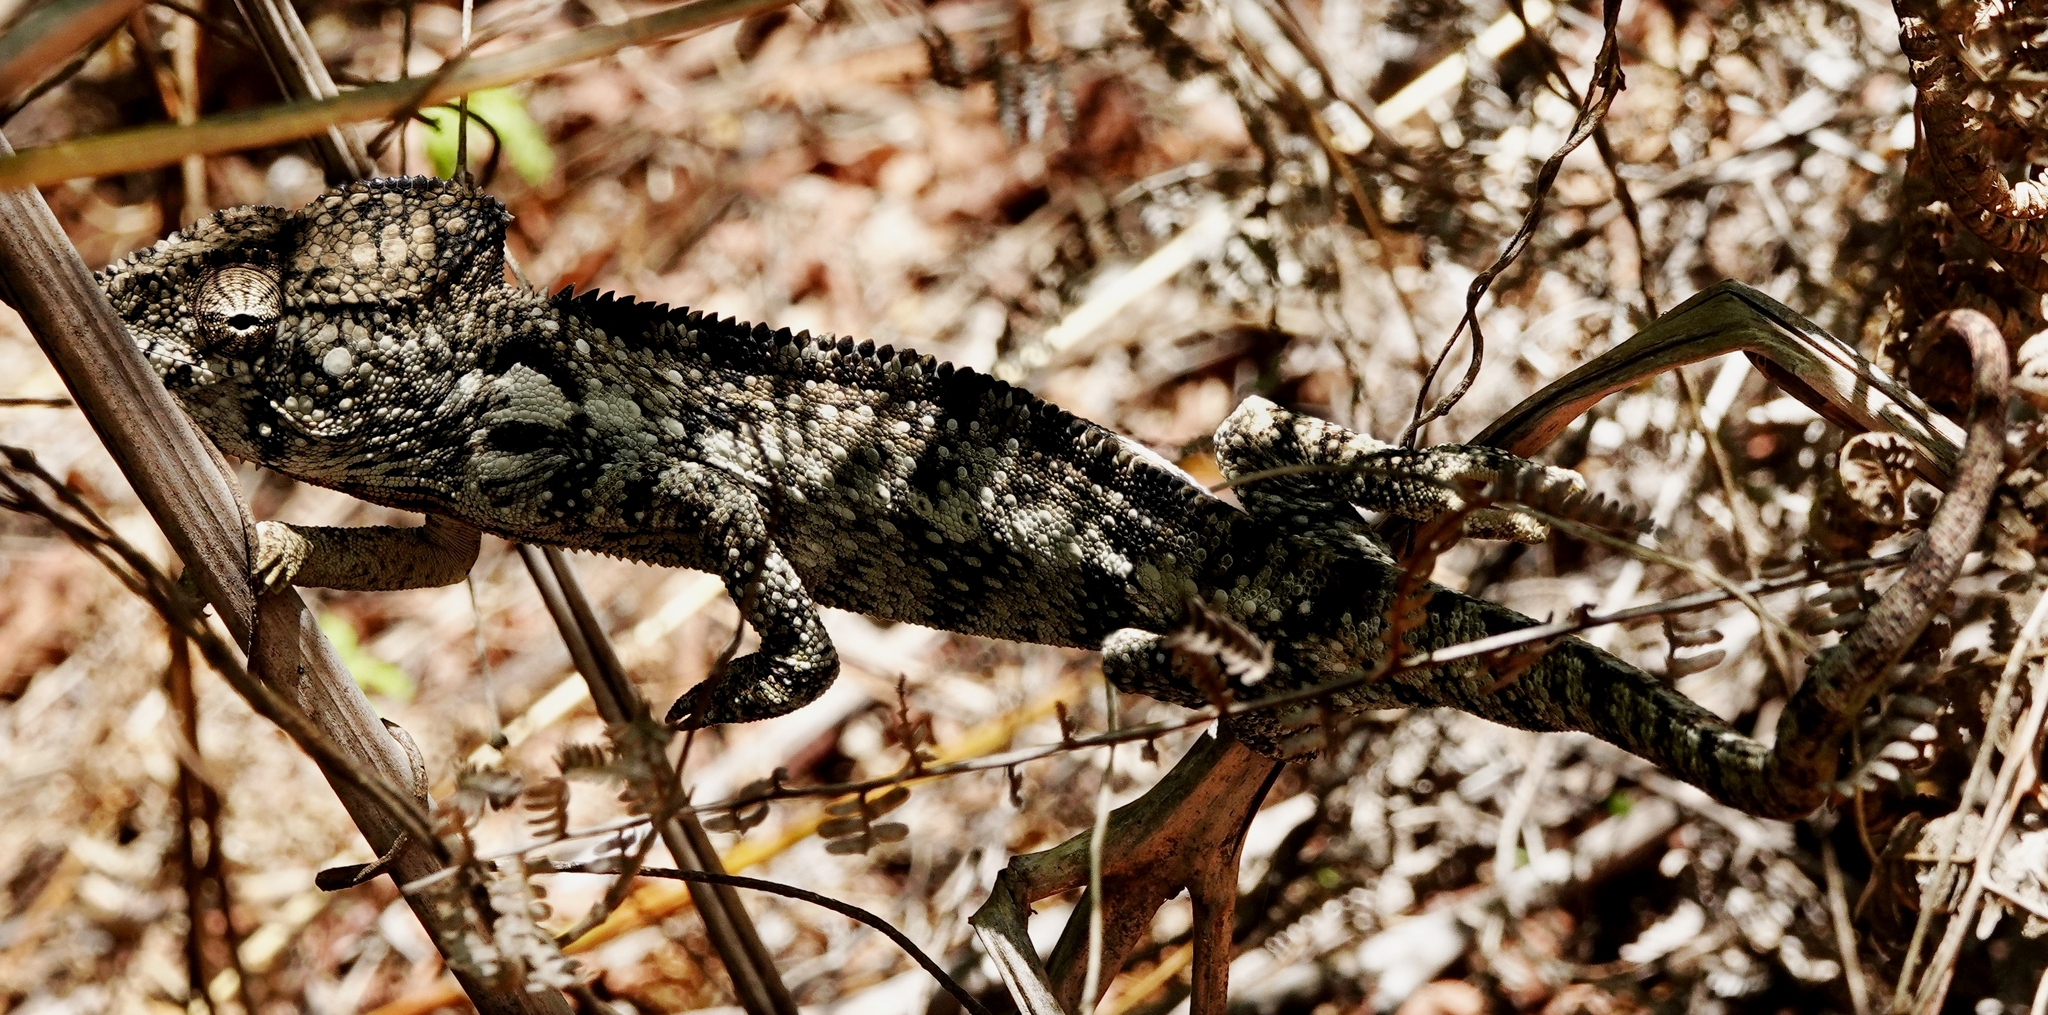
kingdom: Animalia
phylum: Chordata
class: Squamata
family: Chamaeleonidae
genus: Furcifer
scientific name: Furcifer oustaleti
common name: Oustalet's chameleon
